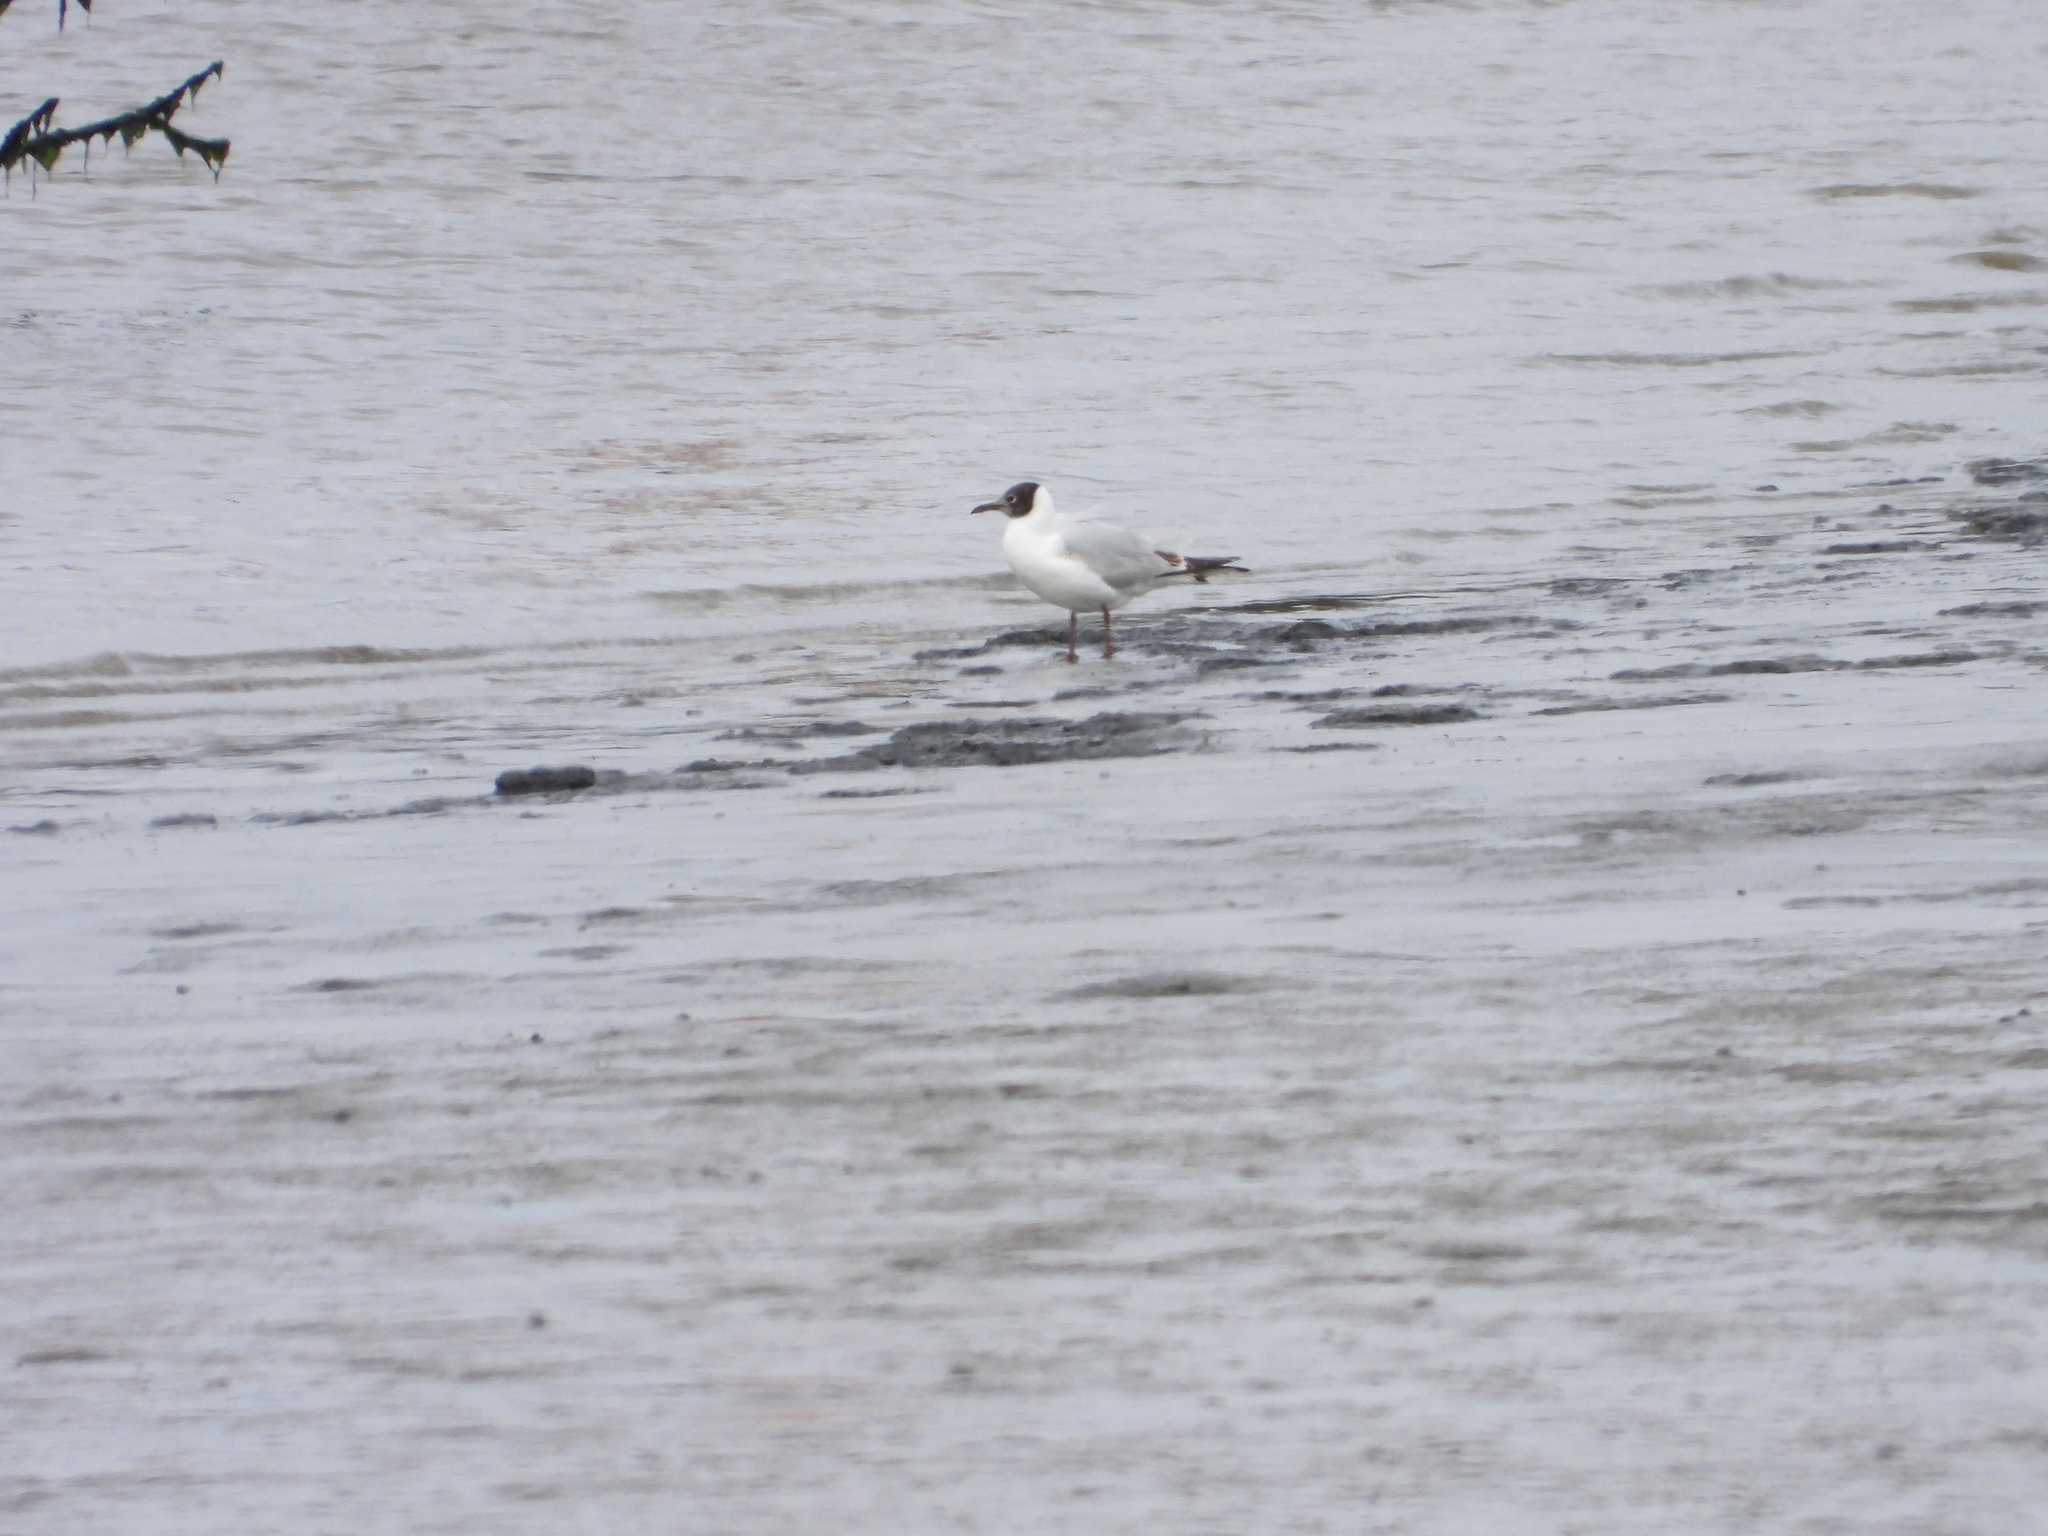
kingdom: Animalia
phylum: Chordata
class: Aves
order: Charadriiformes
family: Laridae
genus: Chroicocephalus
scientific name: Chroicocephalus ridibundus
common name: Black-headed gull
